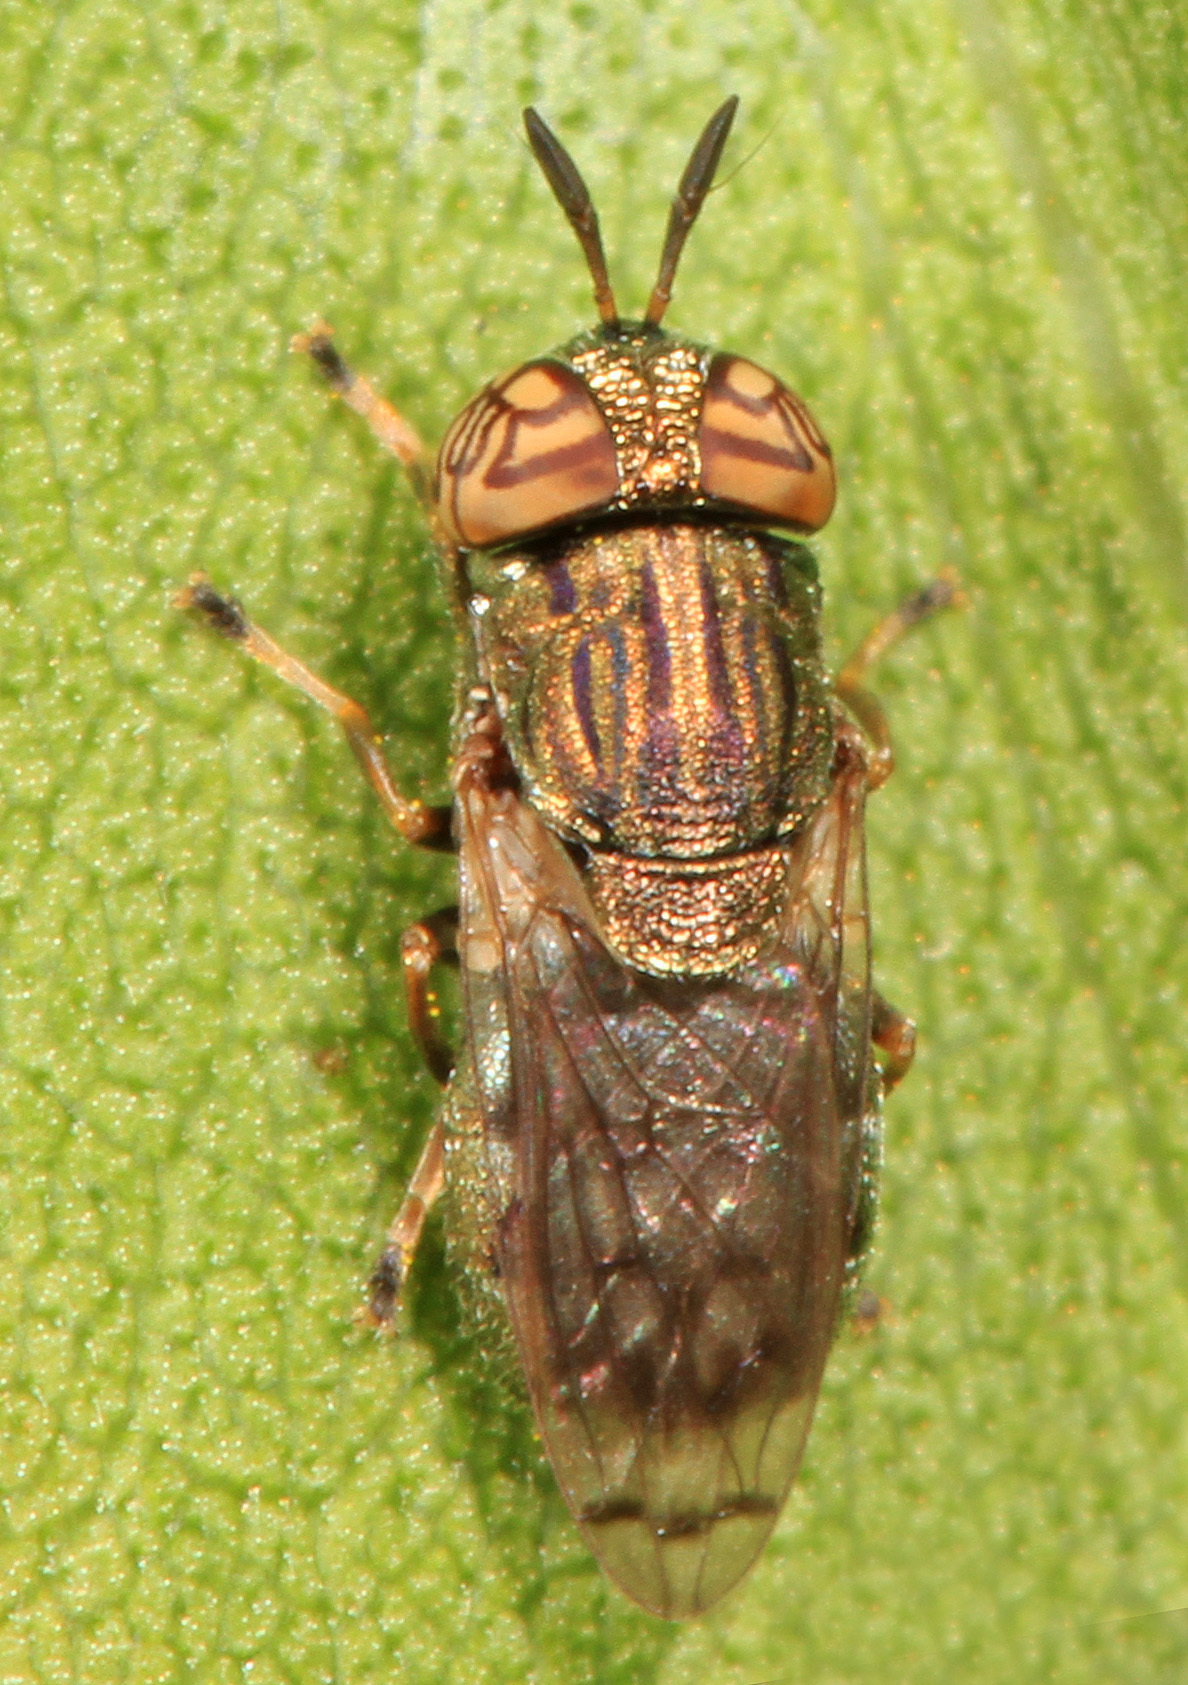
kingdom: Animalia
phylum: Arthropoda
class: Insecta
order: Diptera
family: Syrphidae
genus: Orthonevra
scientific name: Orthonevra nitida
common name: Wavy mucksucker
